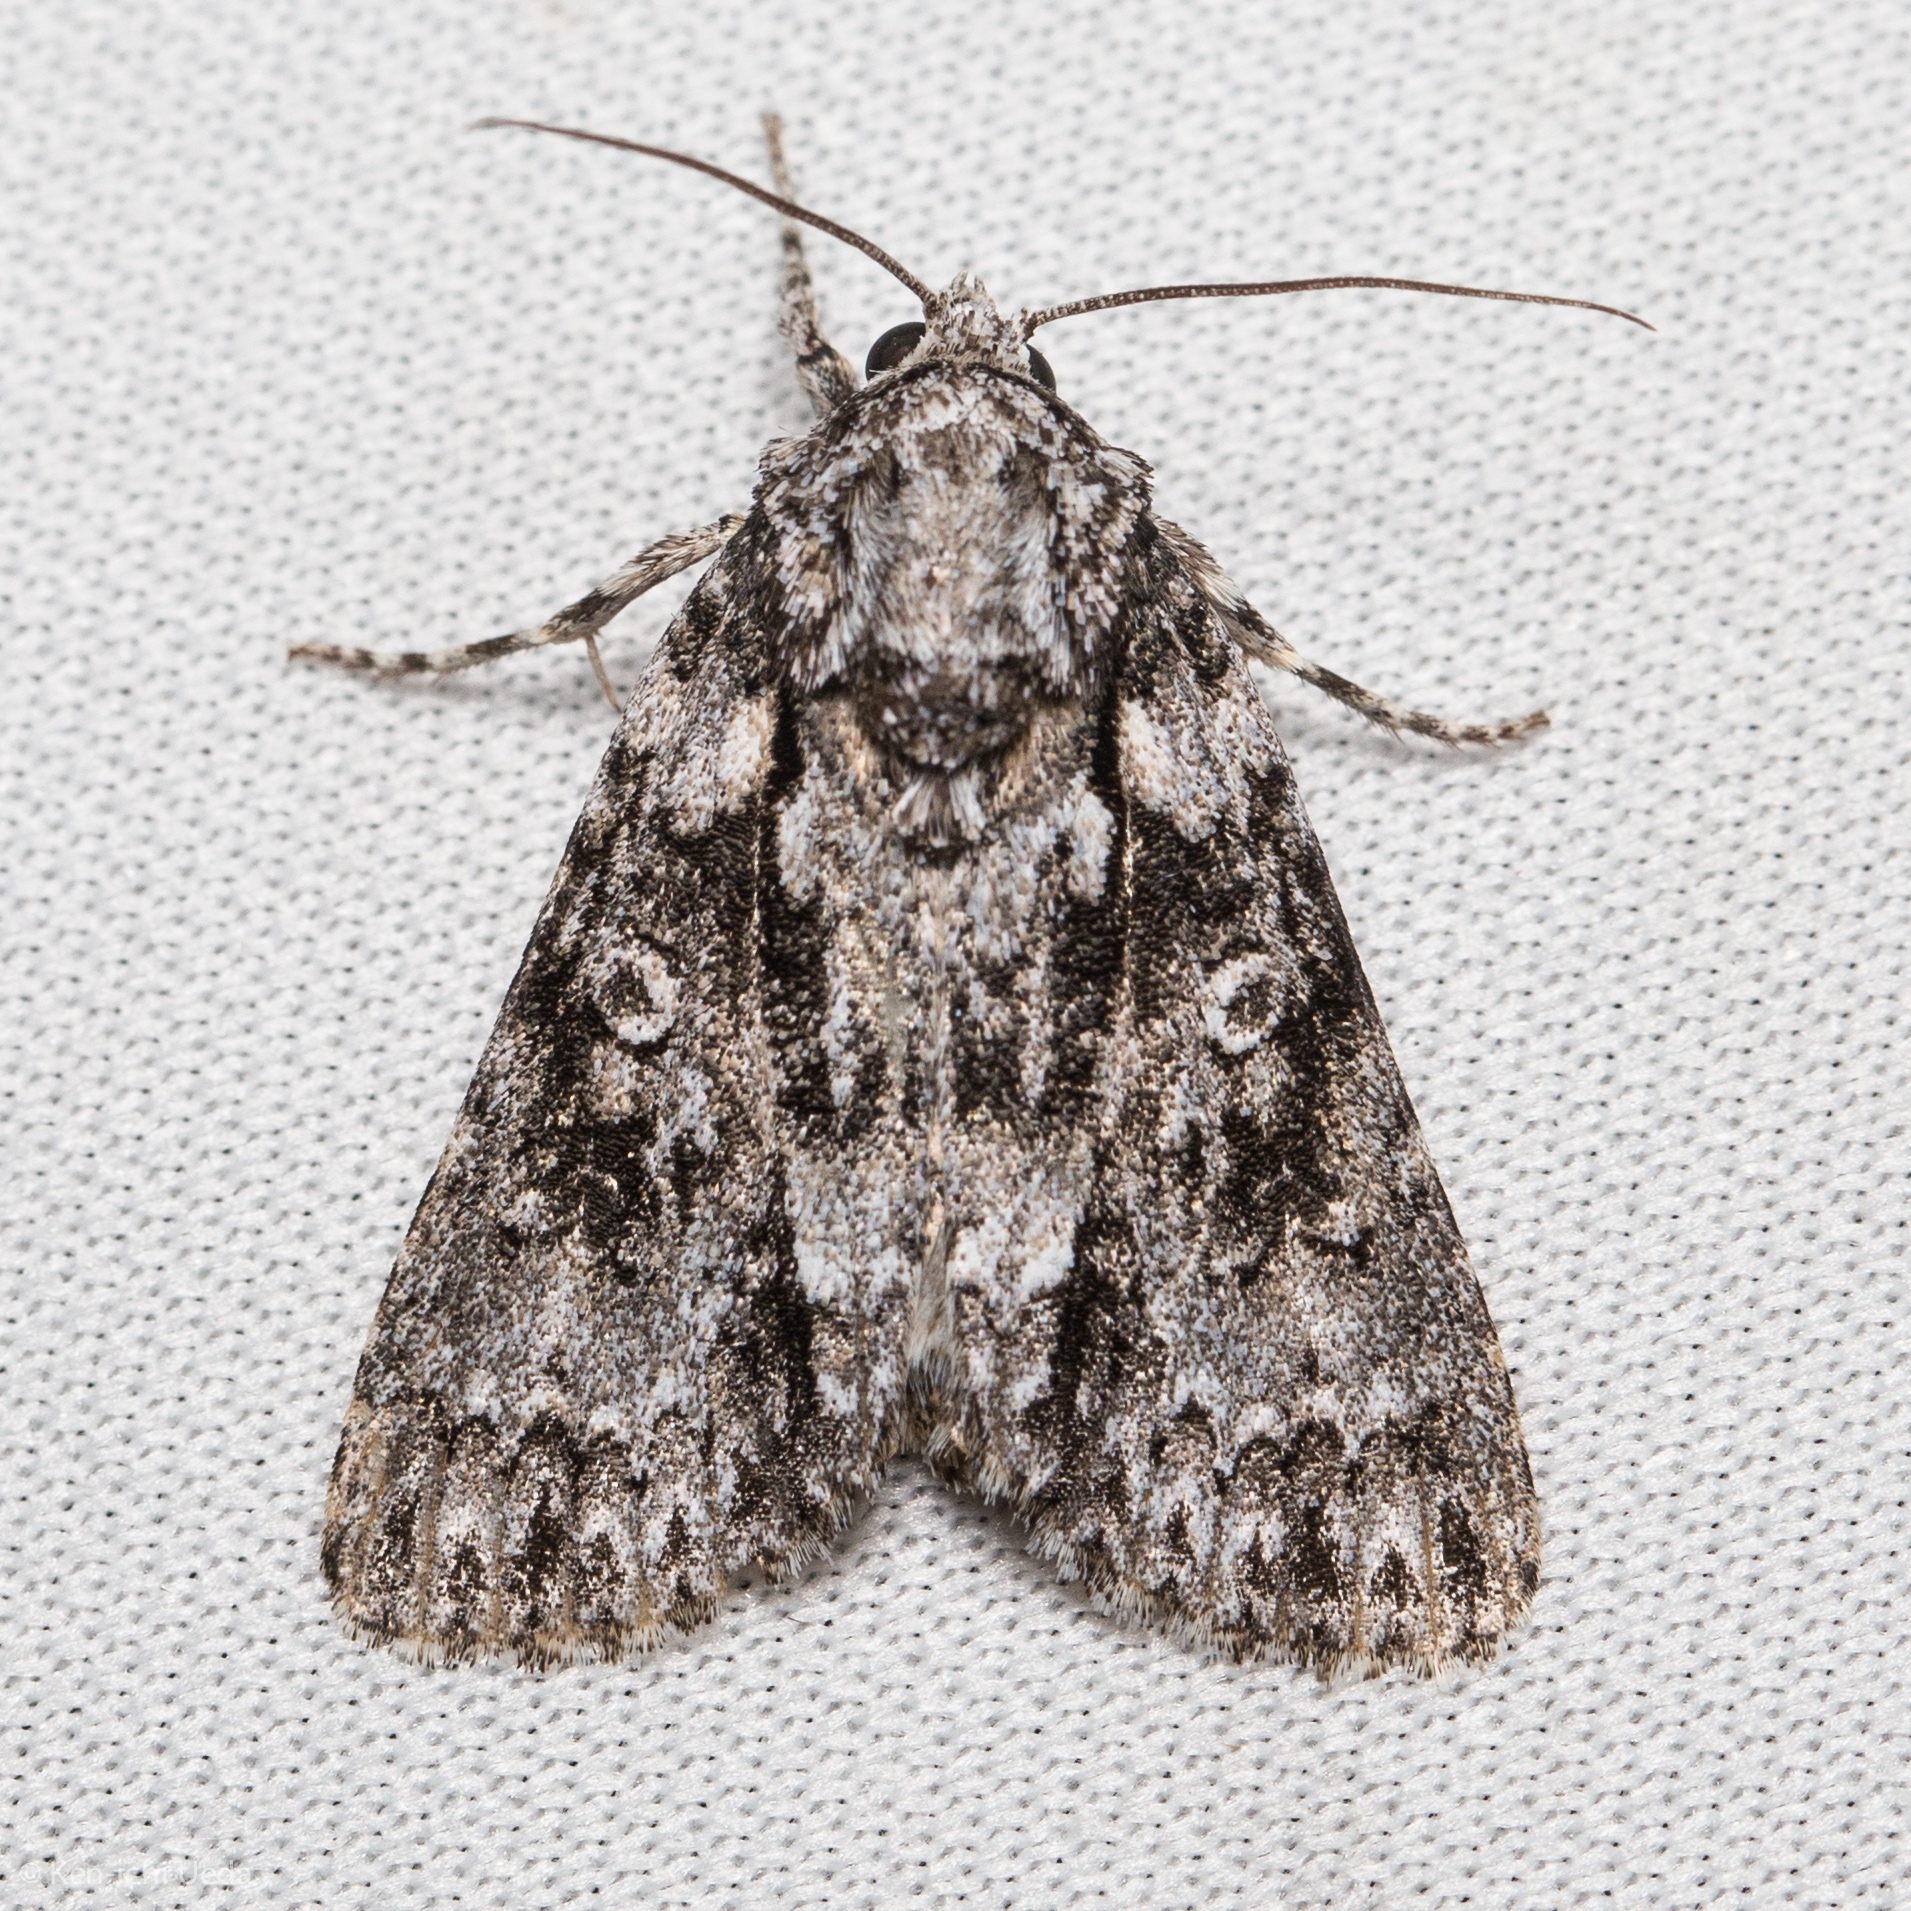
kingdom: Animalia
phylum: Arthropoda
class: Insecta
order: Lepidoptera
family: Noctuidae
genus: Acronicta
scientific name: Acronicta marmorata
